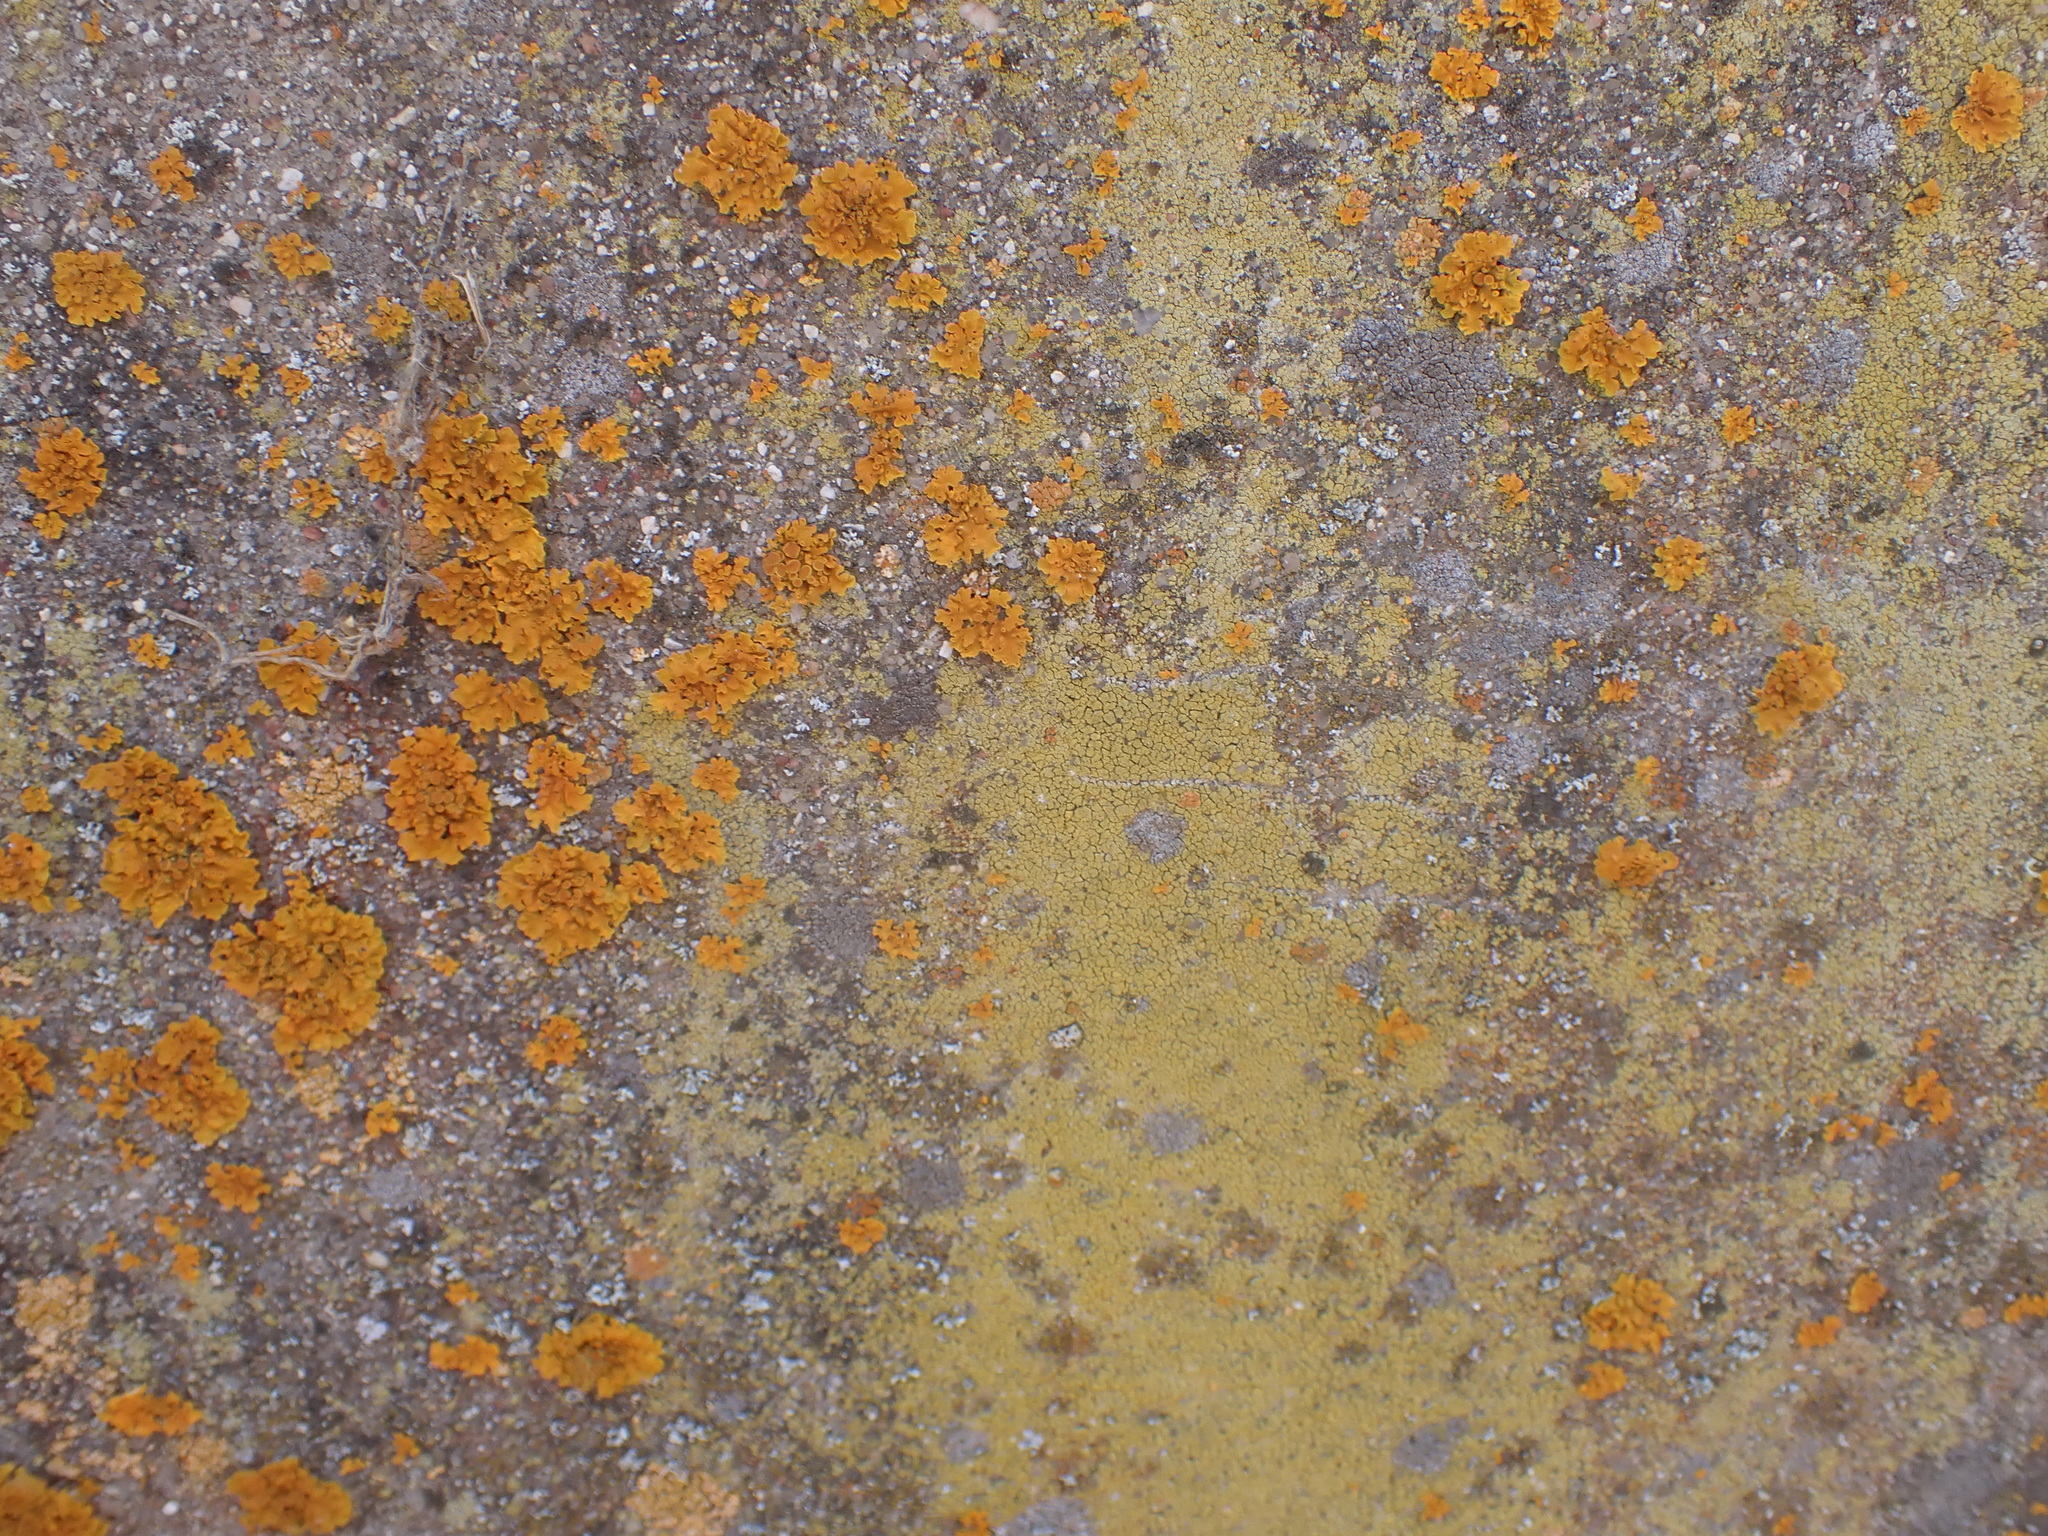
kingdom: Fungi
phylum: Ascomycota
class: Lecanoromycetes
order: Teloschistales
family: Teloschistaceae
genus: Xanthoria
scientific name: Xanthoria parietina
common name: Common orange lichen
